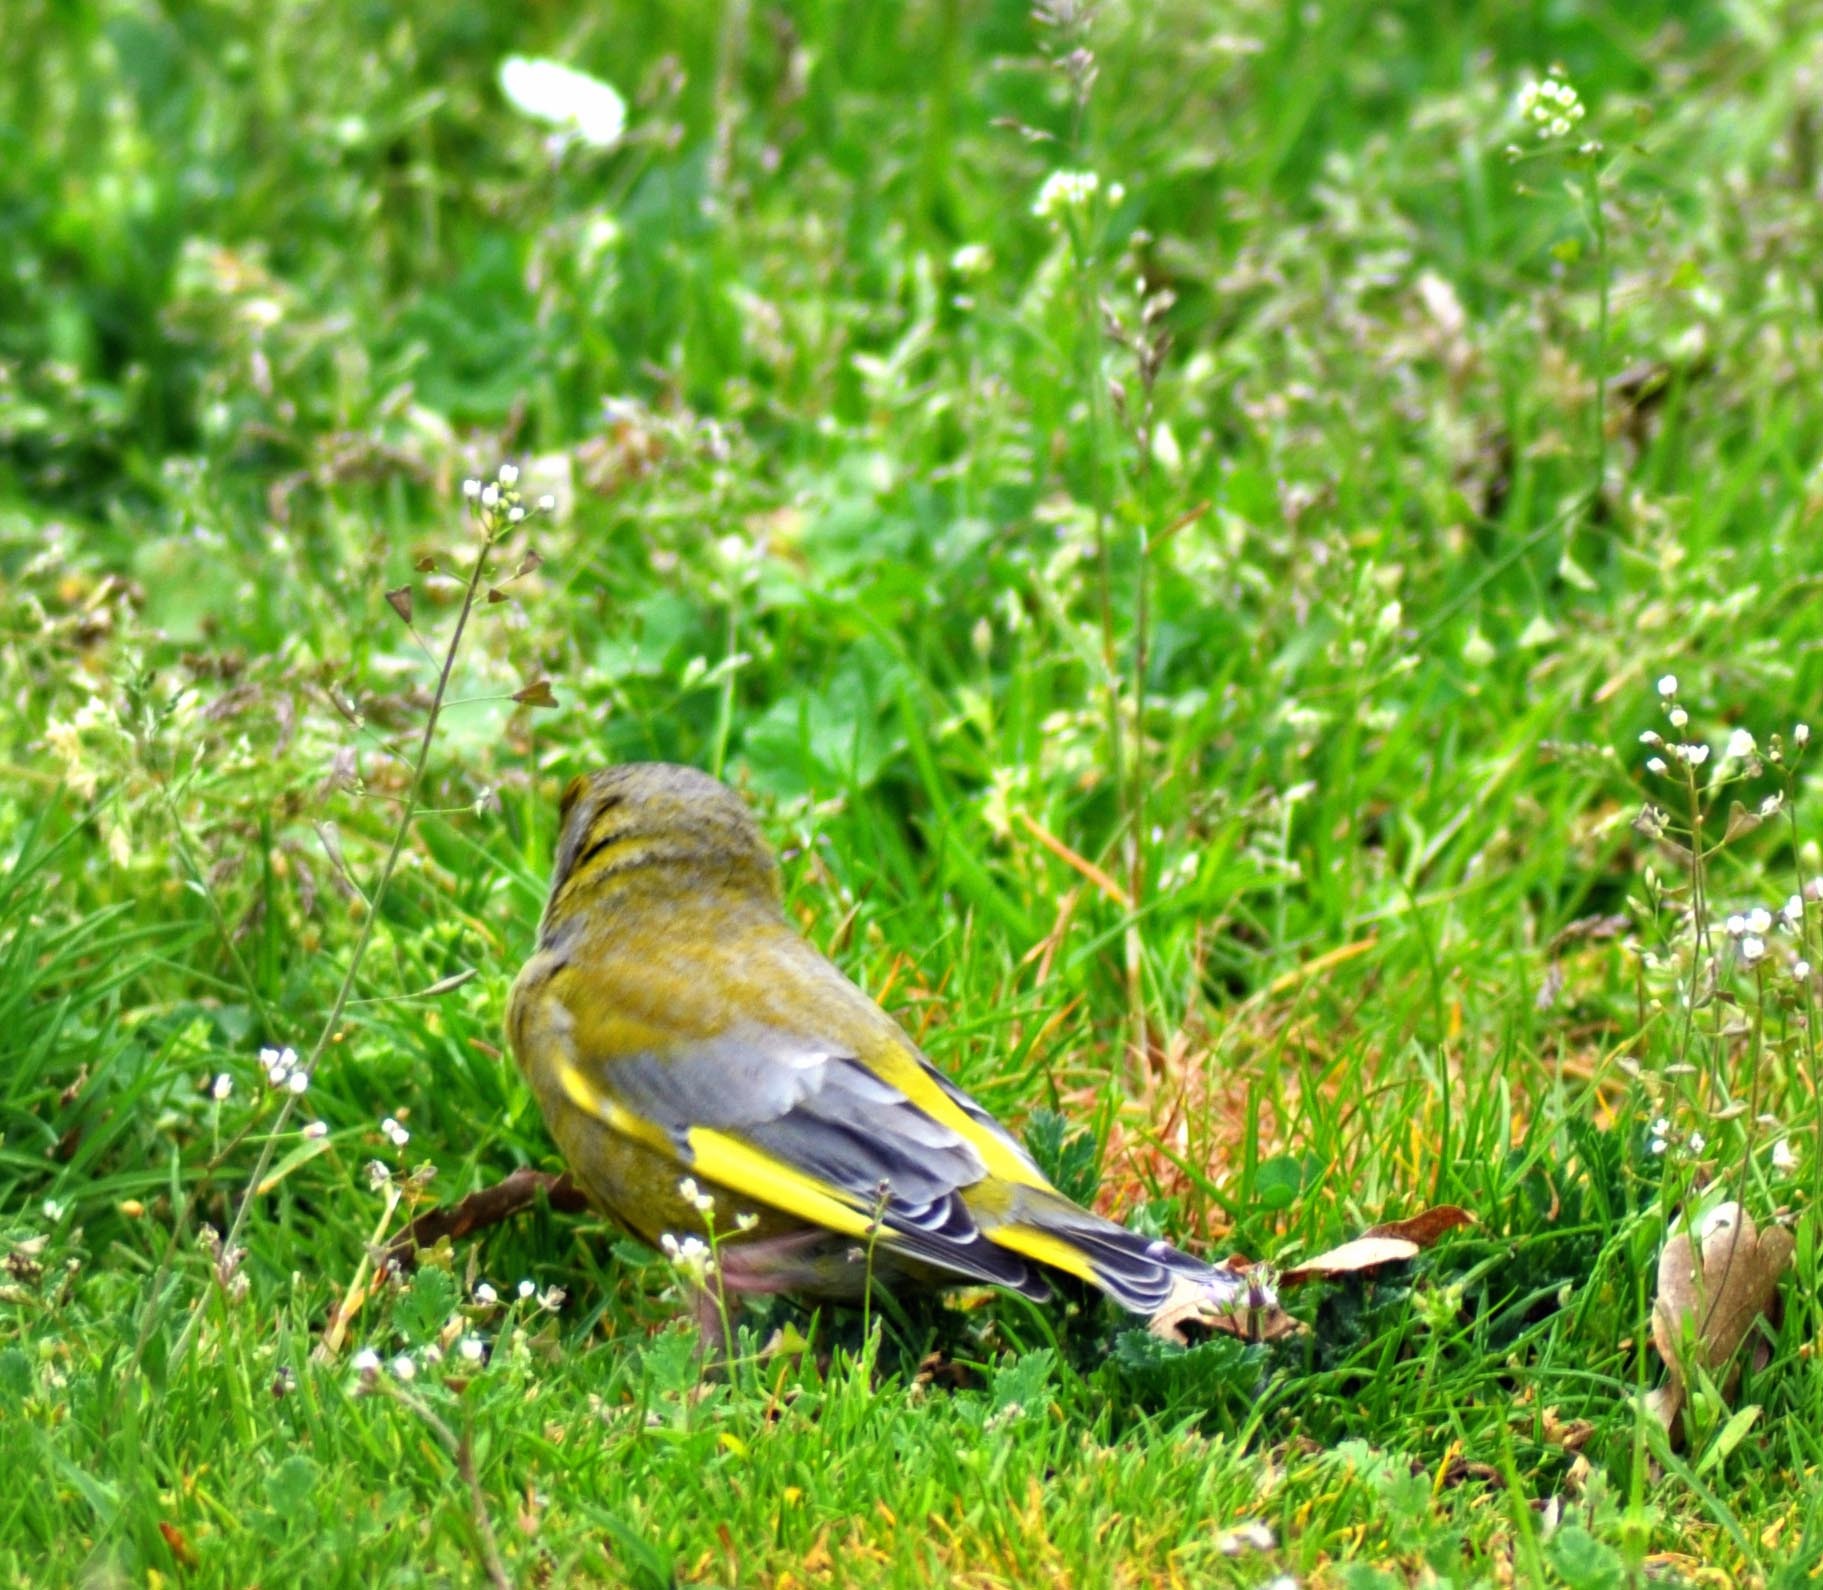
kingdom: Plantae
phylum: Tracheophyta
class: Liliopsida
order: Poales
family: Poaceae
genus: Chloris
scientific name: Chloris chloris
